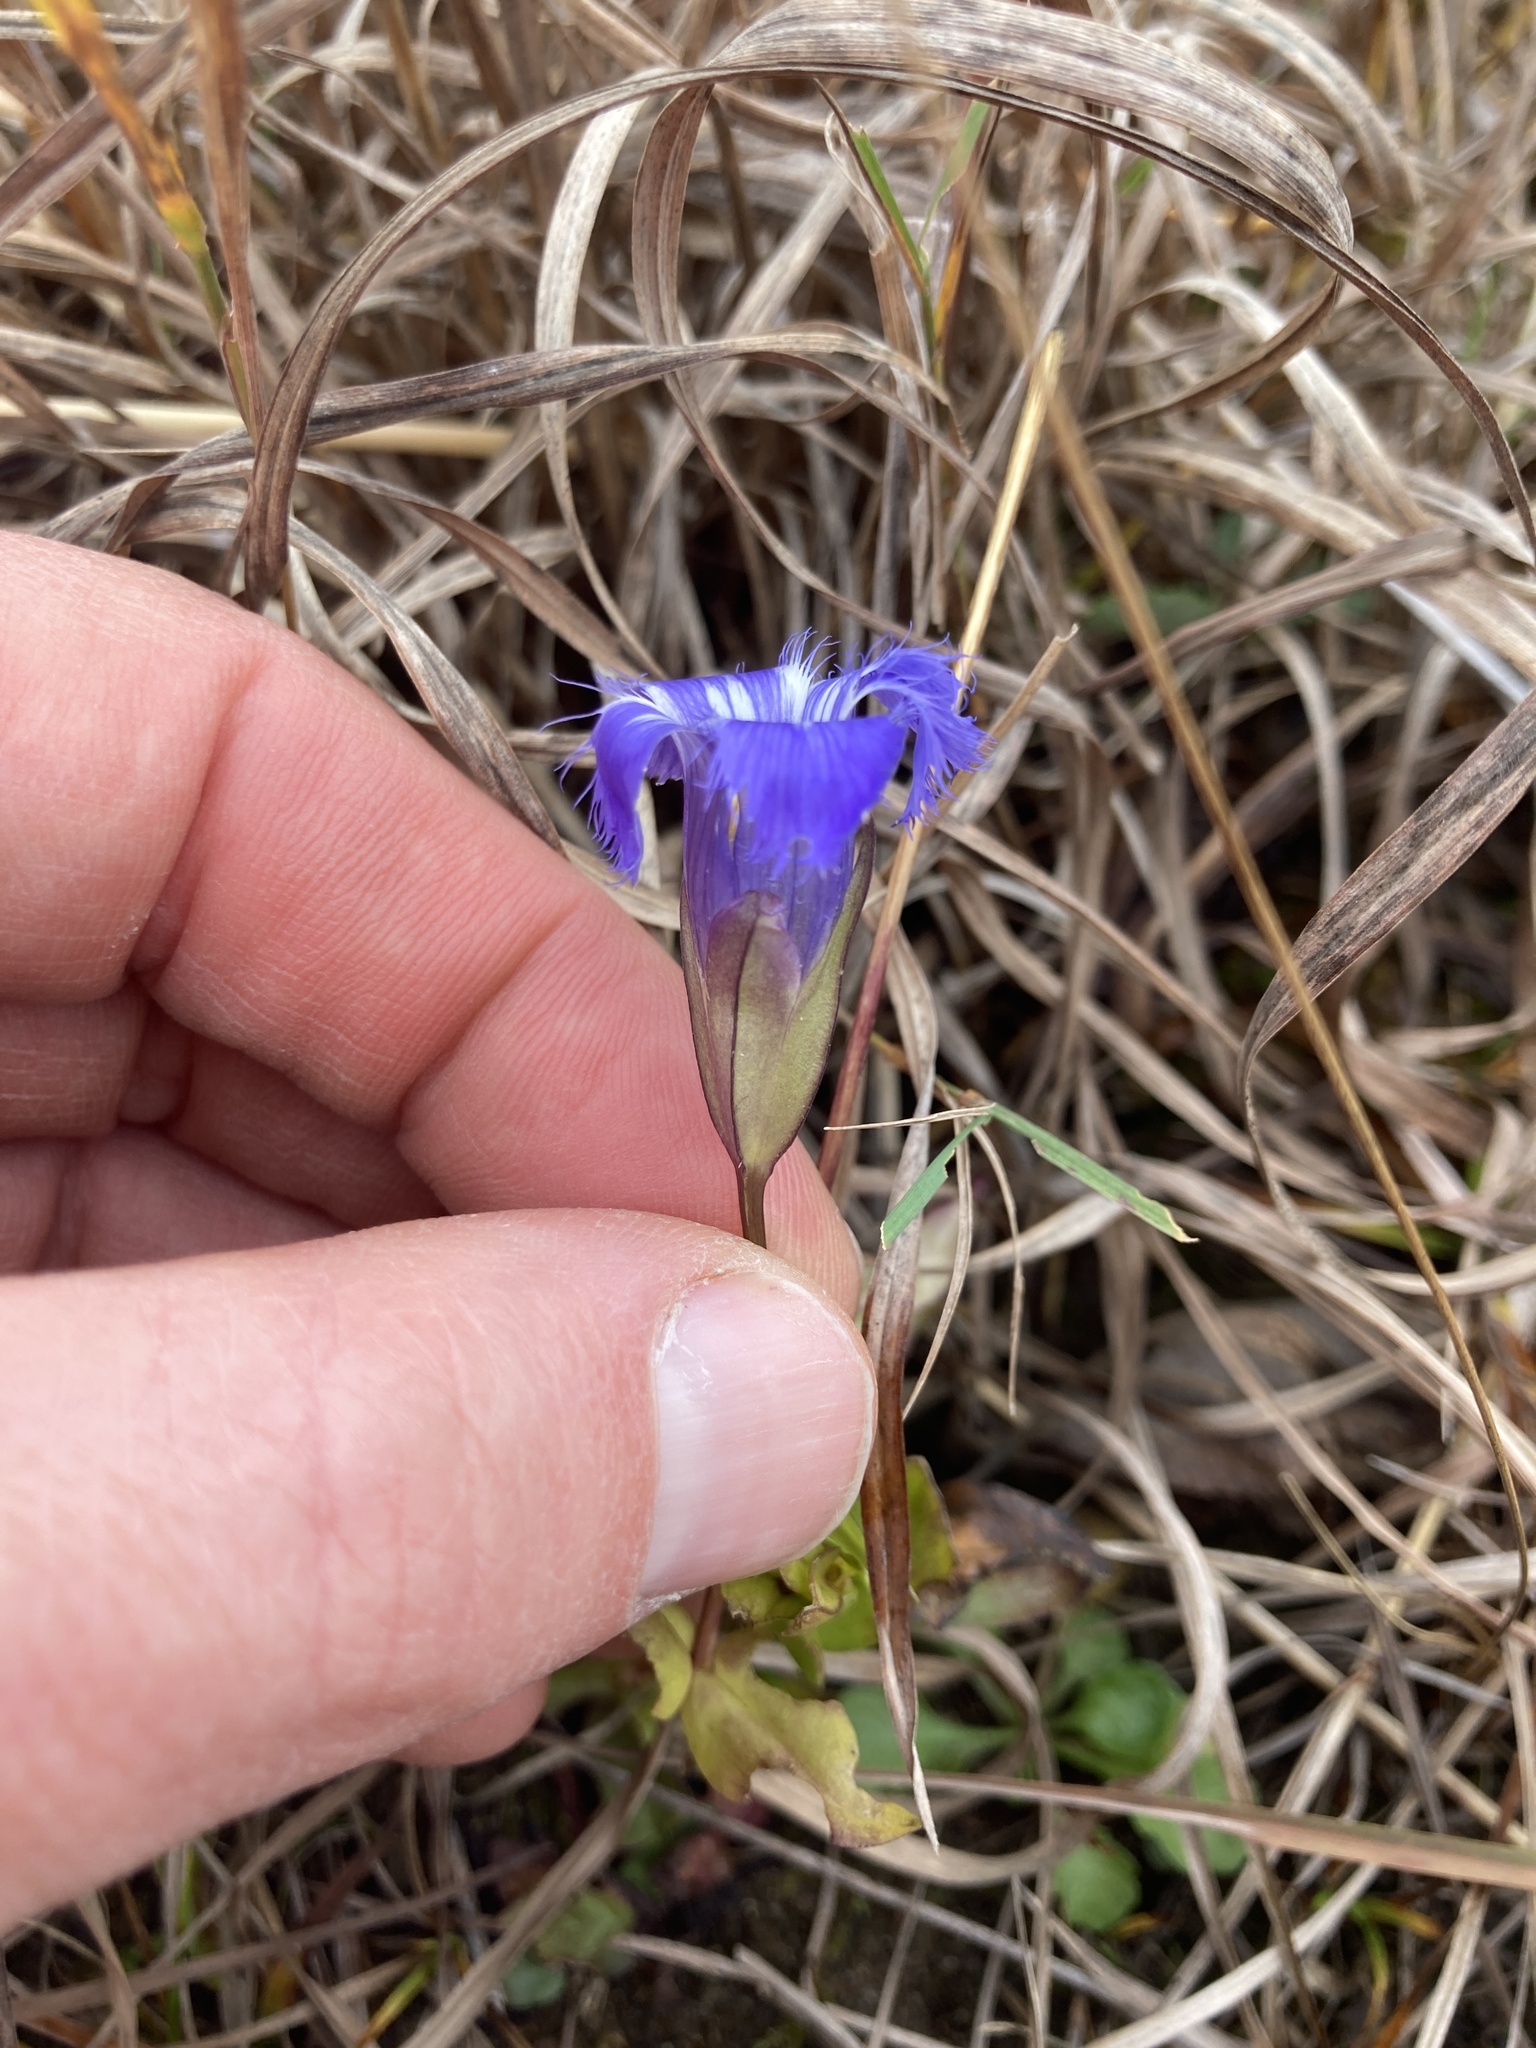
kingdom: Plantae
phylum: Tracheophyta
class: Magnoliopsida
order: Gentianales
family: Gentianaceae
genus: Gentianopsis
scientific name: Gentianopsis crinita
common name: Fringed-gentian
